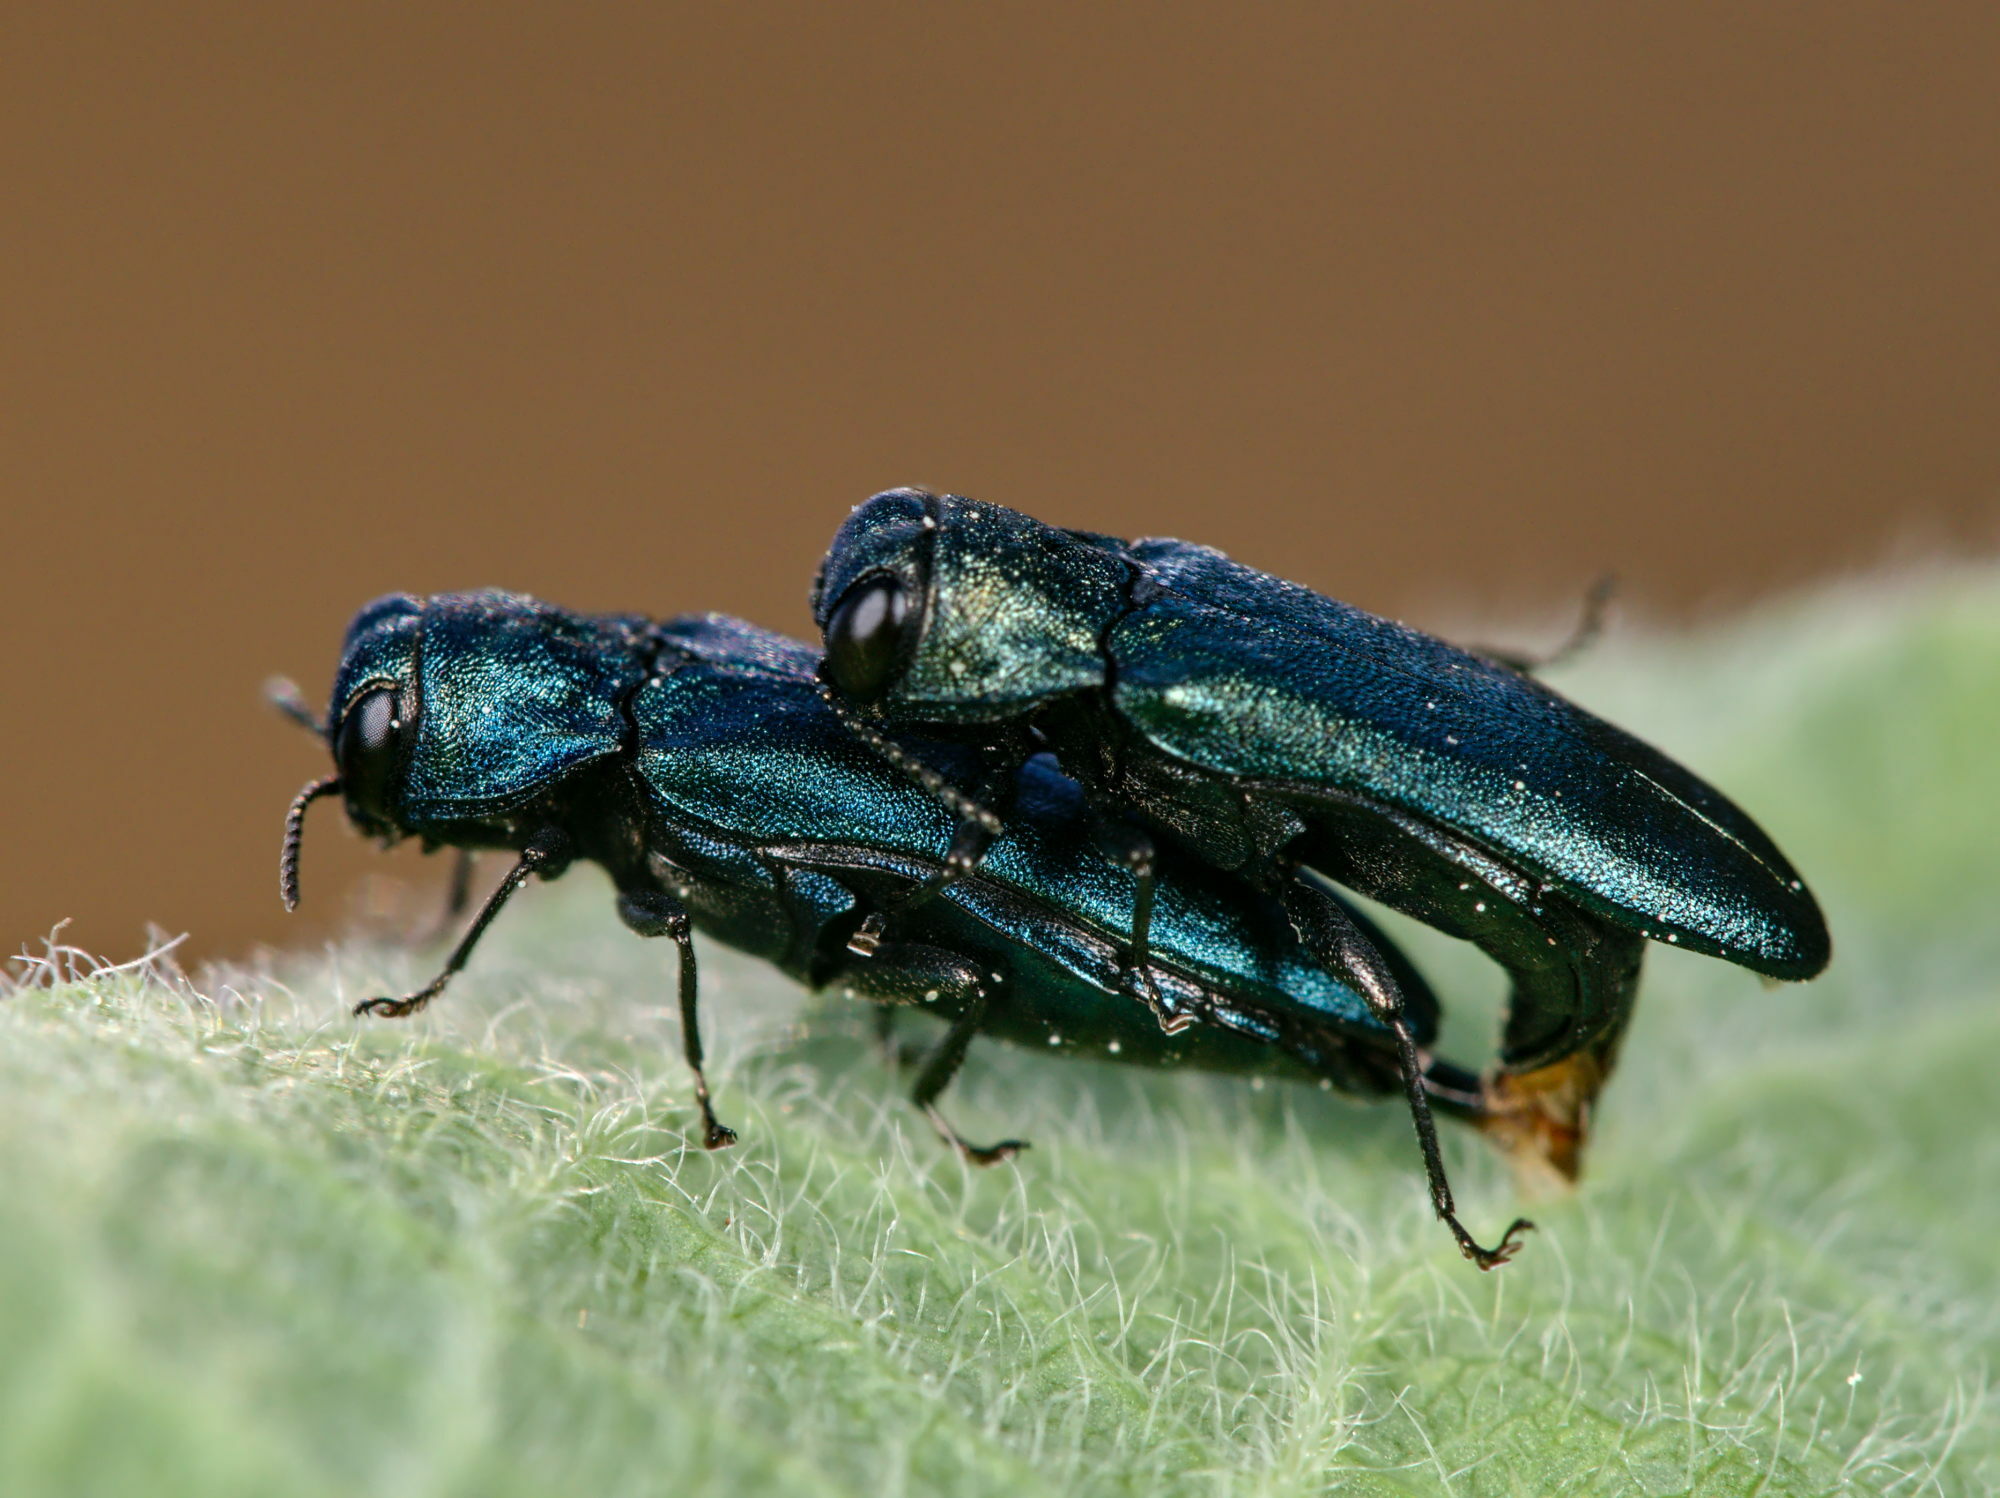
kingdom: Animalia
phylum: Arthropoda
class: Insecta
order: Coleoptera
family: Buprestidae
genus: Agrilus
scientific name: Agrilus cyanescens
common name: Bluish borer beetle
